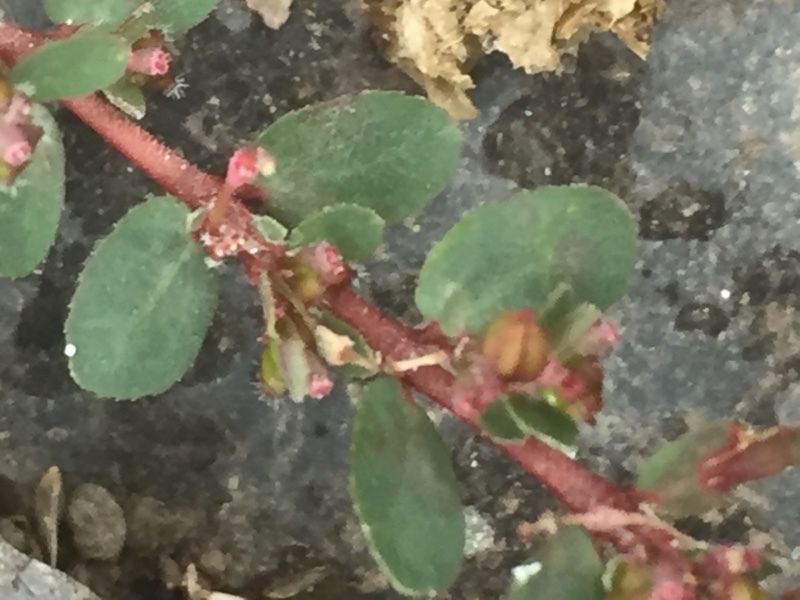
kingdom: Plantae
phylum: Tracheophyta
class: Magnoliopsida
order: Malpighiales
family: Euphorbiaceae
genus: Euphorbia
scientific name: Euphorbia prostrata
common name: Prostrate sandmat
